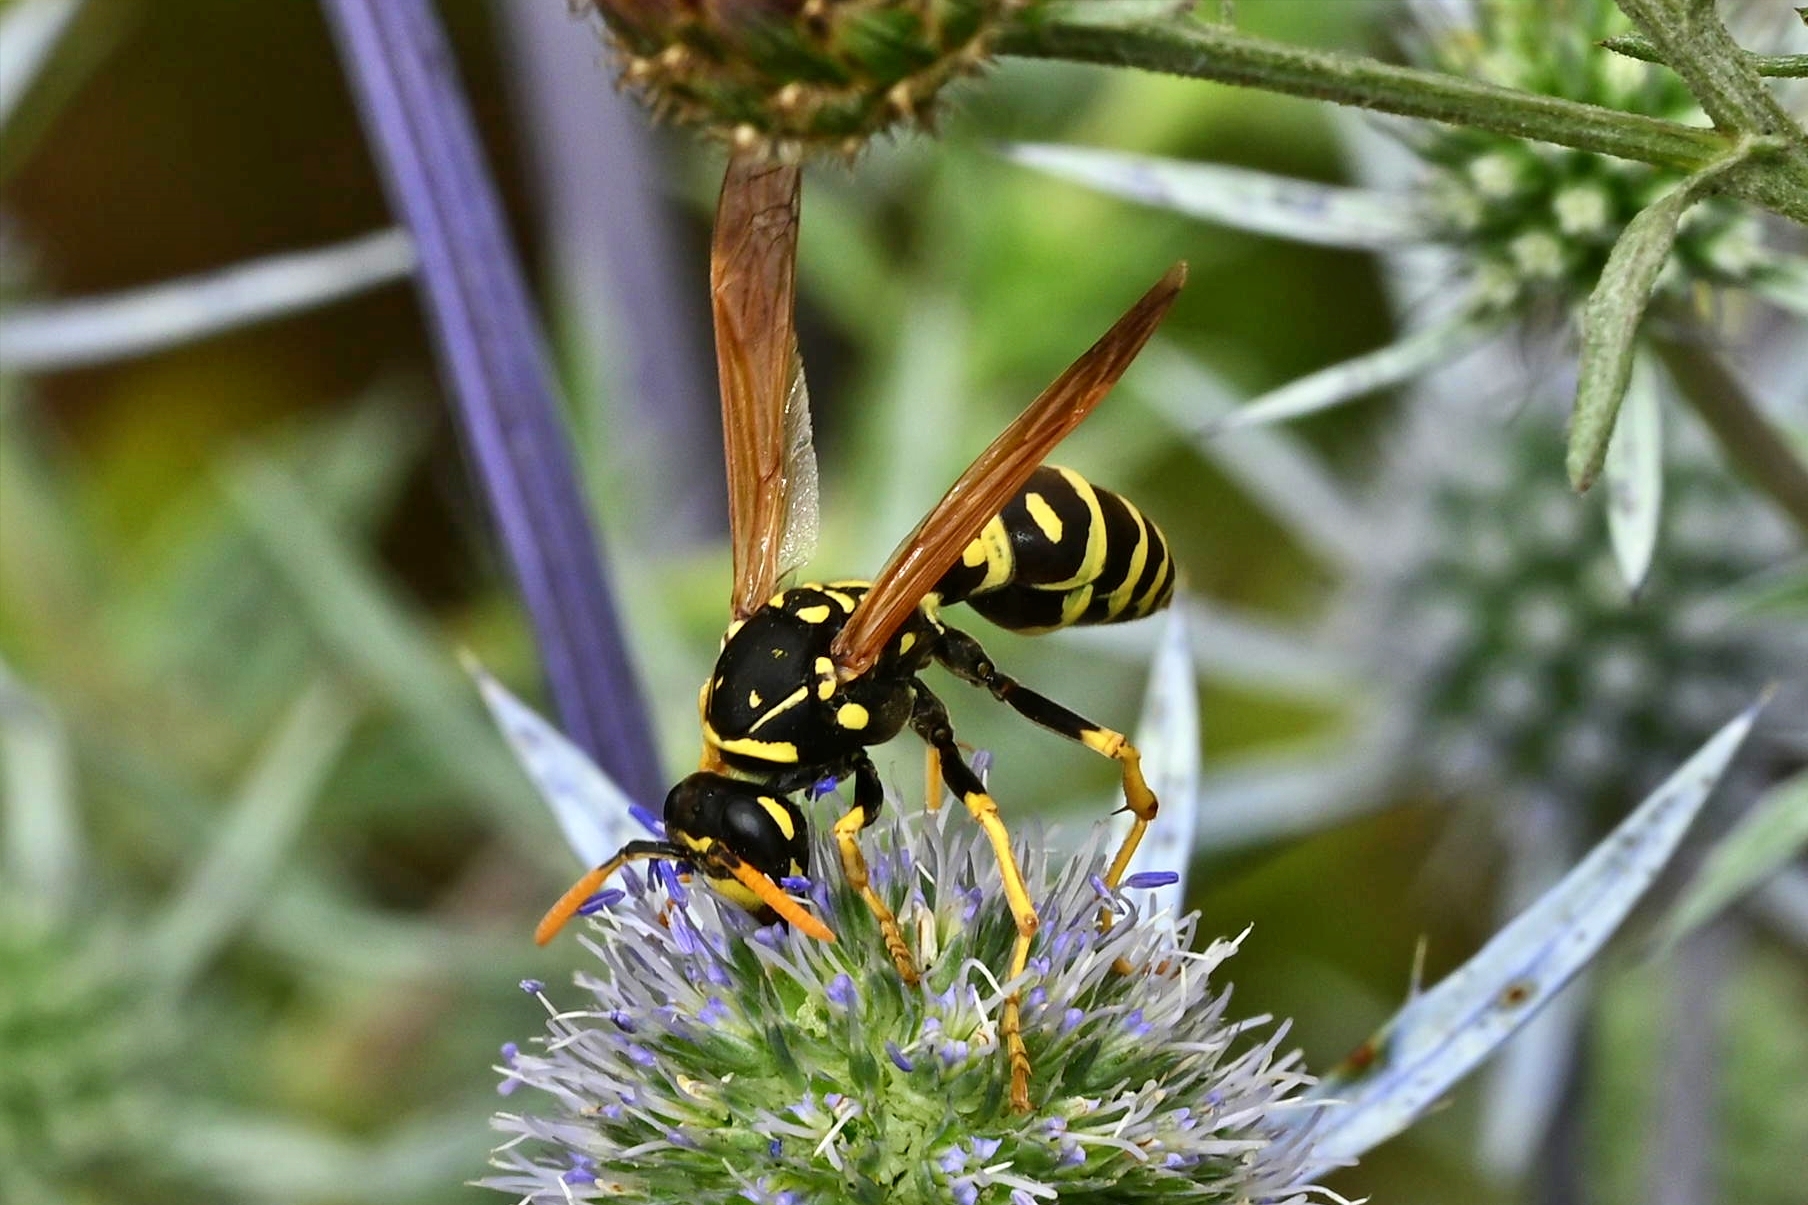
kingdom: Animalia
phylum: Arthropoda
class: Insecta
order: Hymenoptera
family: Eumenidae
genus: Polistes
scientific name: Polistes dominula
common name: Paper wasp
